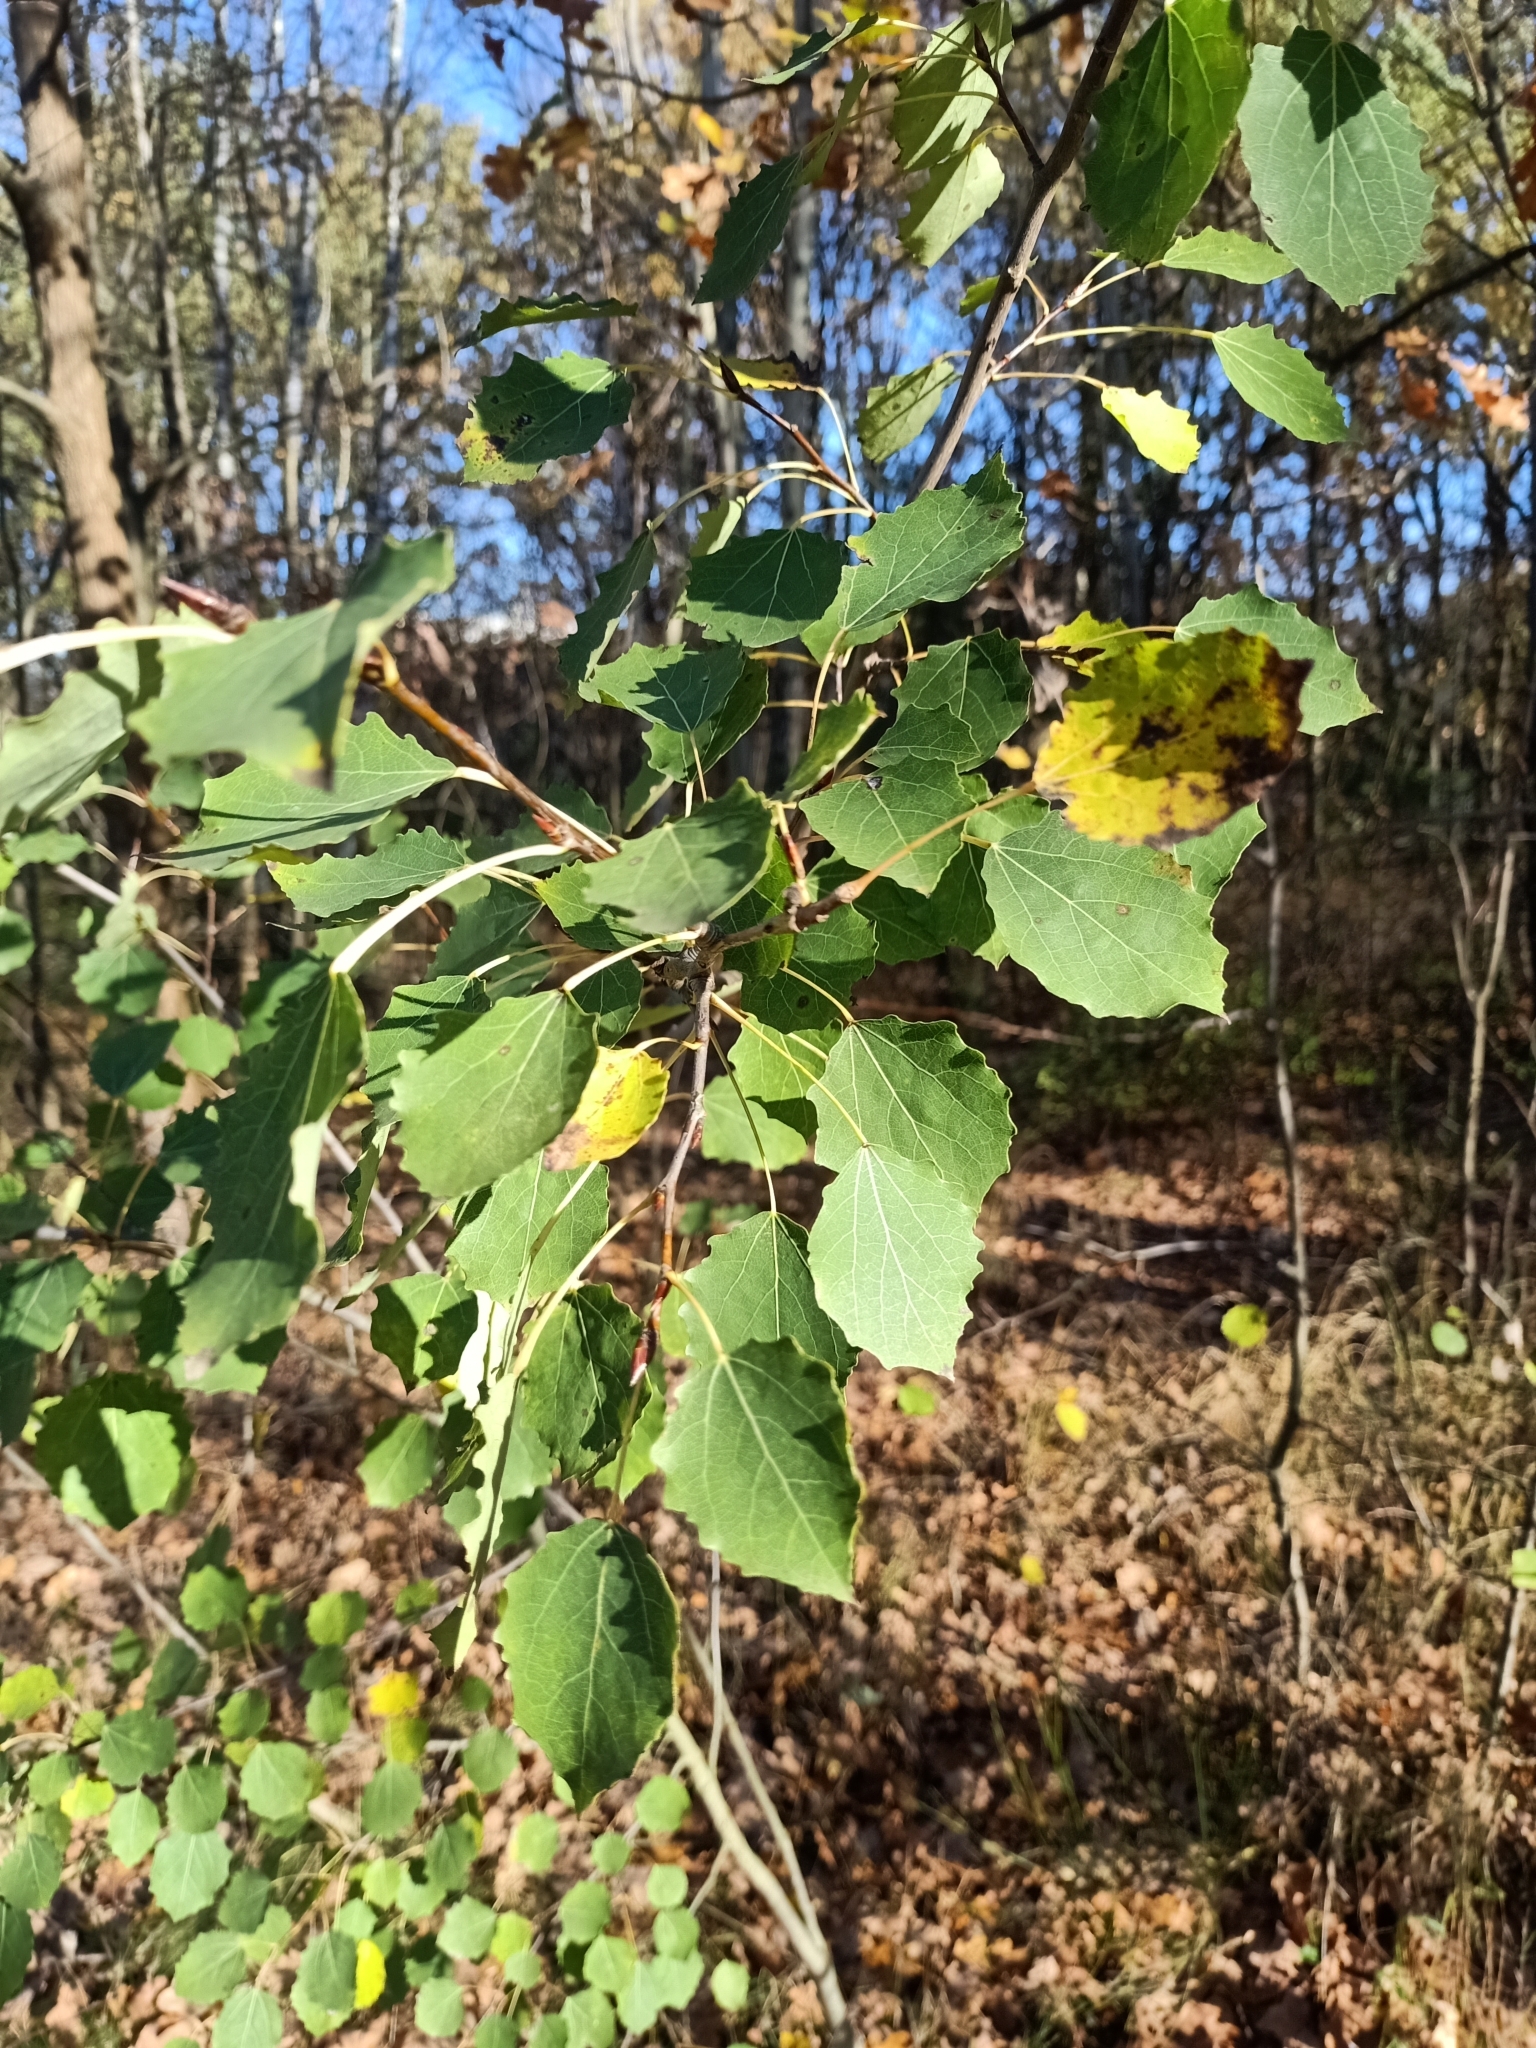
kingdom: Plantae
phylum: Tracheophyta
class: Magnoliopsida
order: Malpighiales
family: Salicaceae
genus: Populus
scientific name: Populus tremula
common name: European aspen
